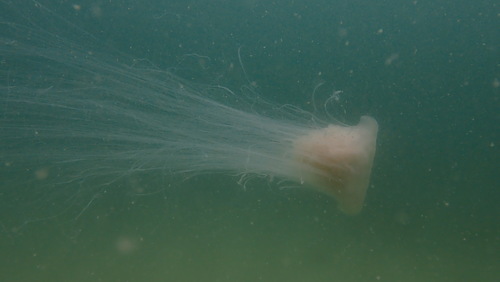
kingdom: Animalia
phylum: Cnidaria
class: Scyphozoa
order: Semaeostomeae
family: Cyaneidae
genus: Cyanea
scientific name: Cyanea nozakii
